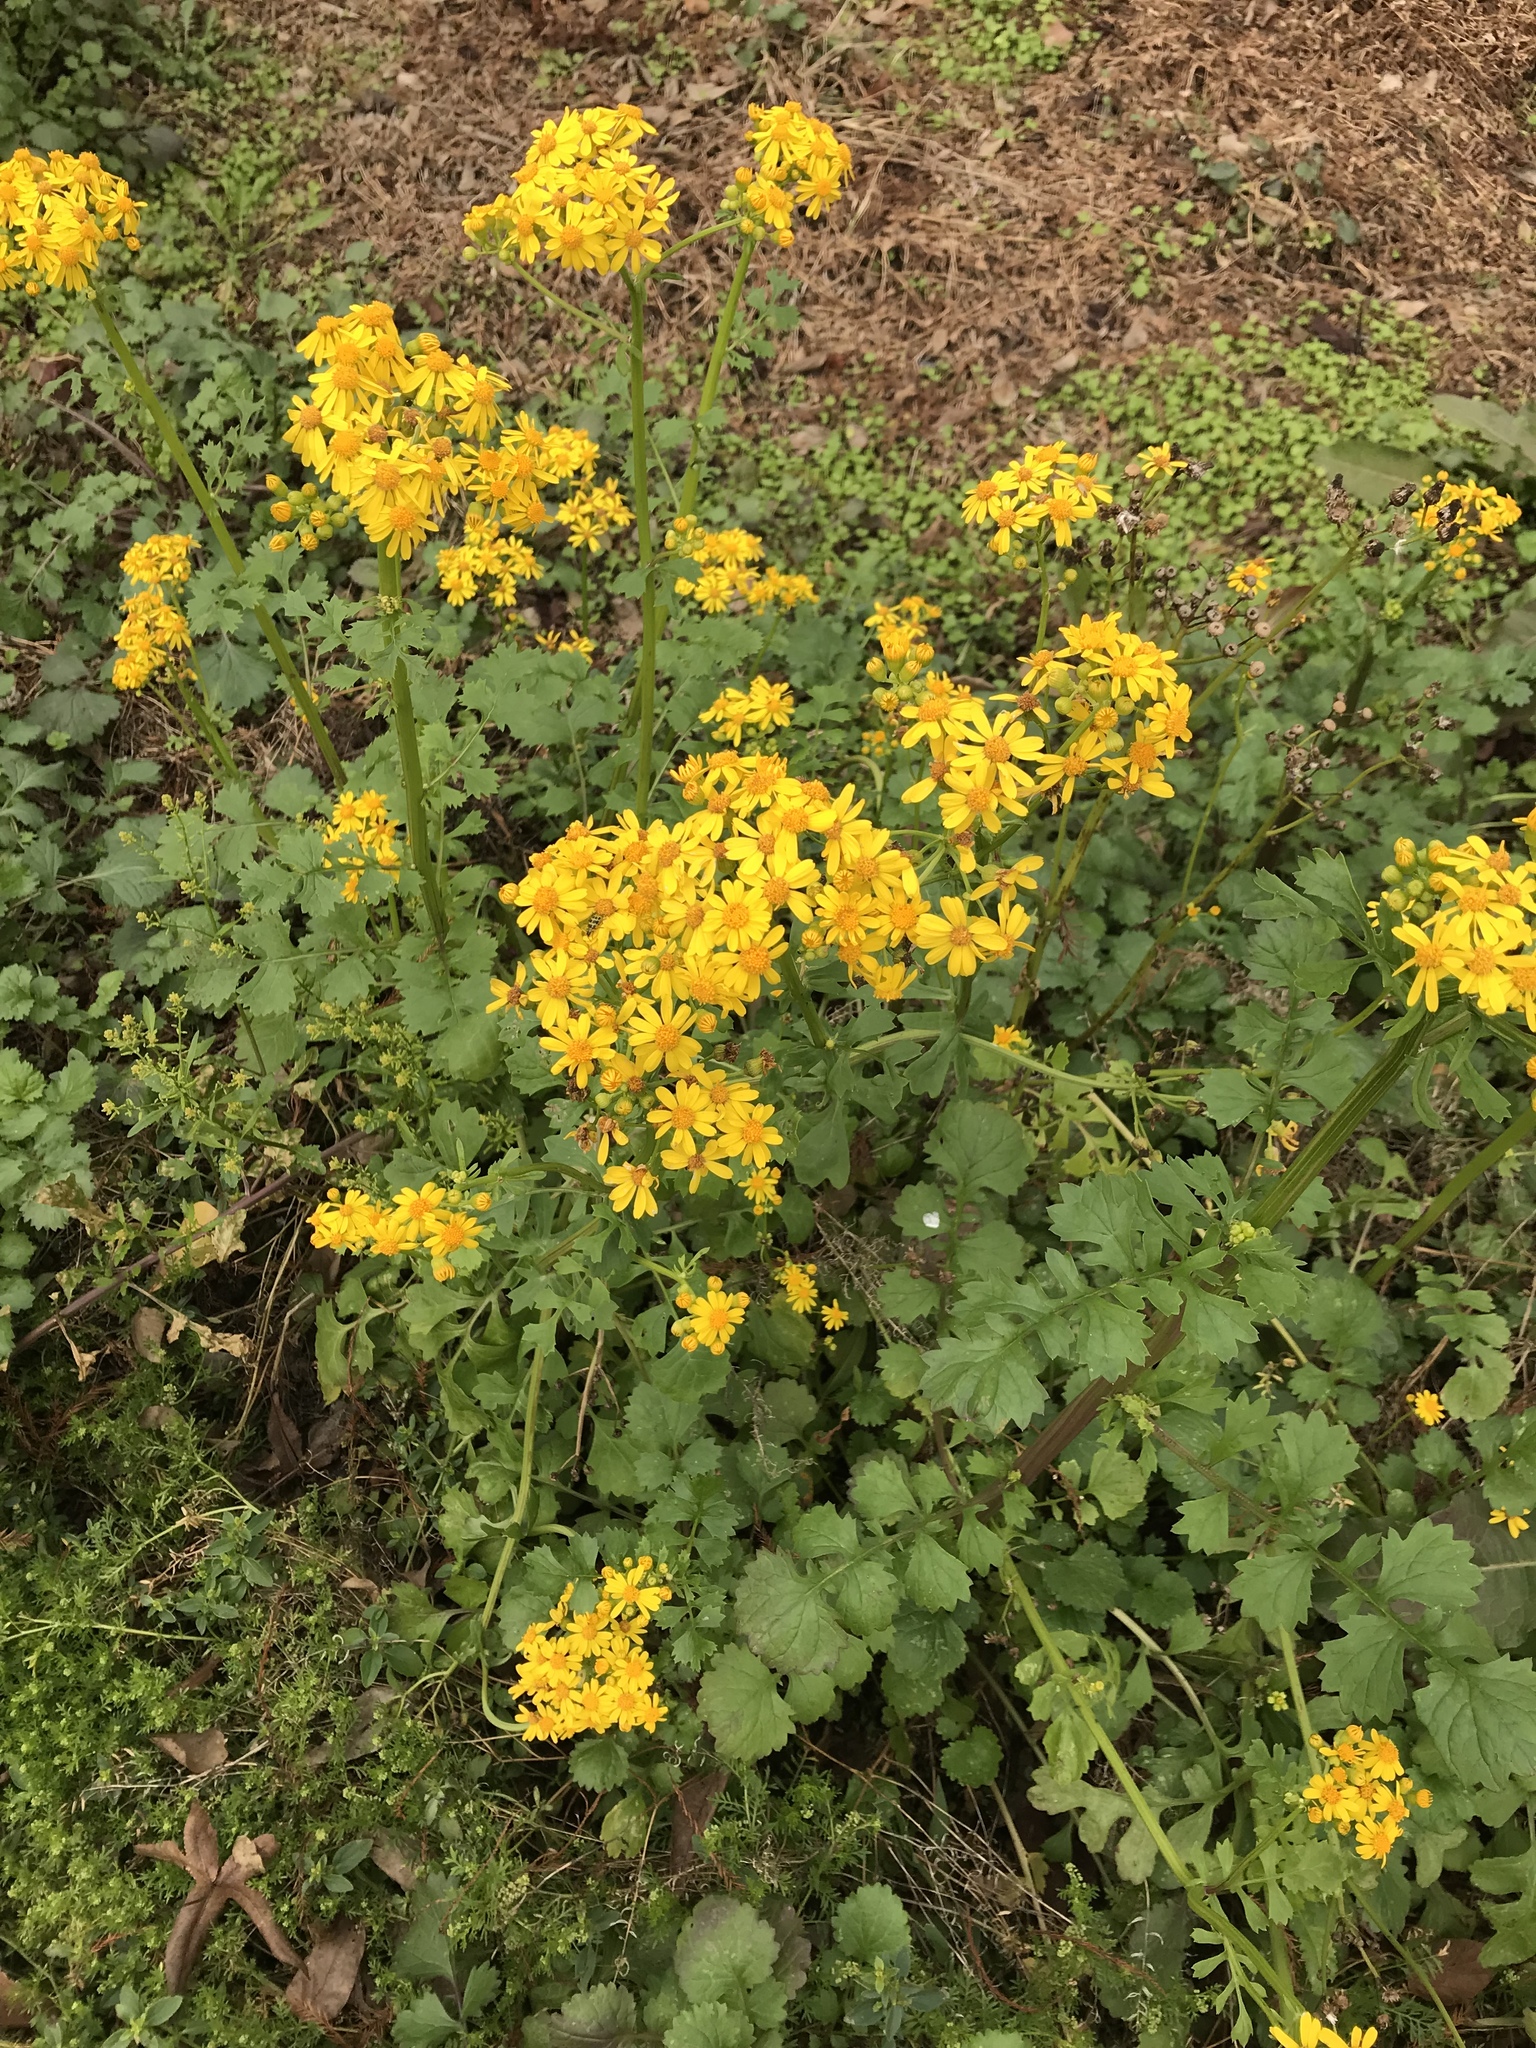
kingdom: Plantae
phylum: Tracheophyta
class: Magnoliopsida
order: Asterales
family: Asteraceae
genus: Packera
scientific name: Packera glabella
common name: Butterweed
